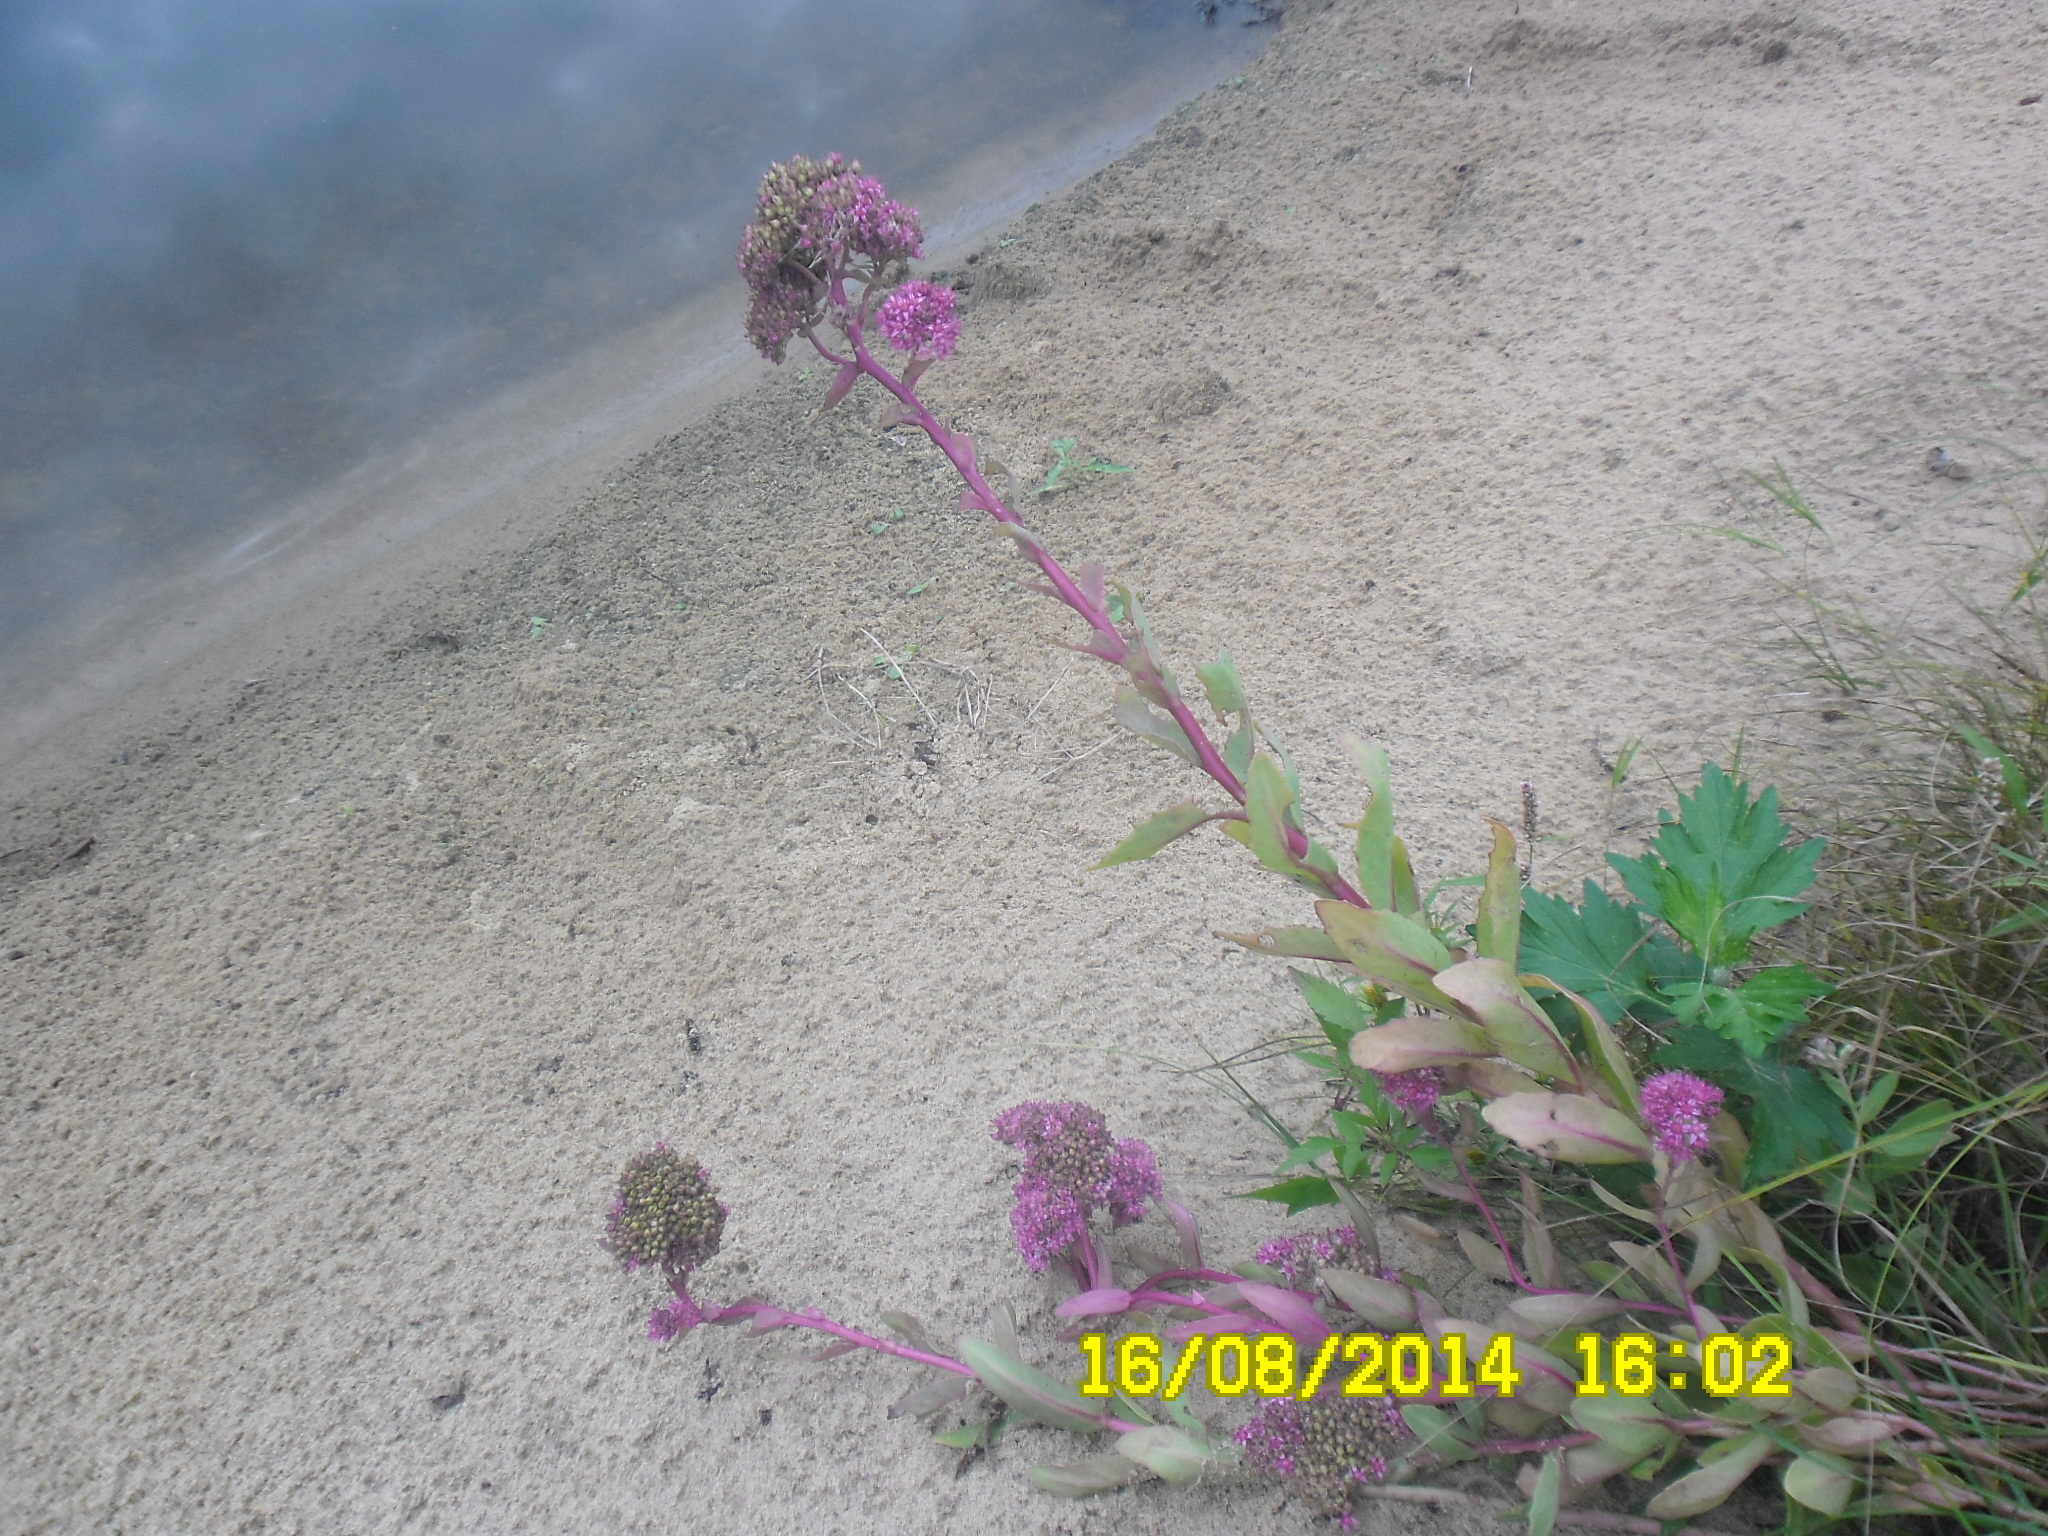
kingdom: Plantae
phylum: Tracheophyta
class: Magnoliopsida
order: Saxifragales
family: Crassulaceae
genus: Hylotelephium
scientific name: Hylotelephium telephium
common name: Live-forever
